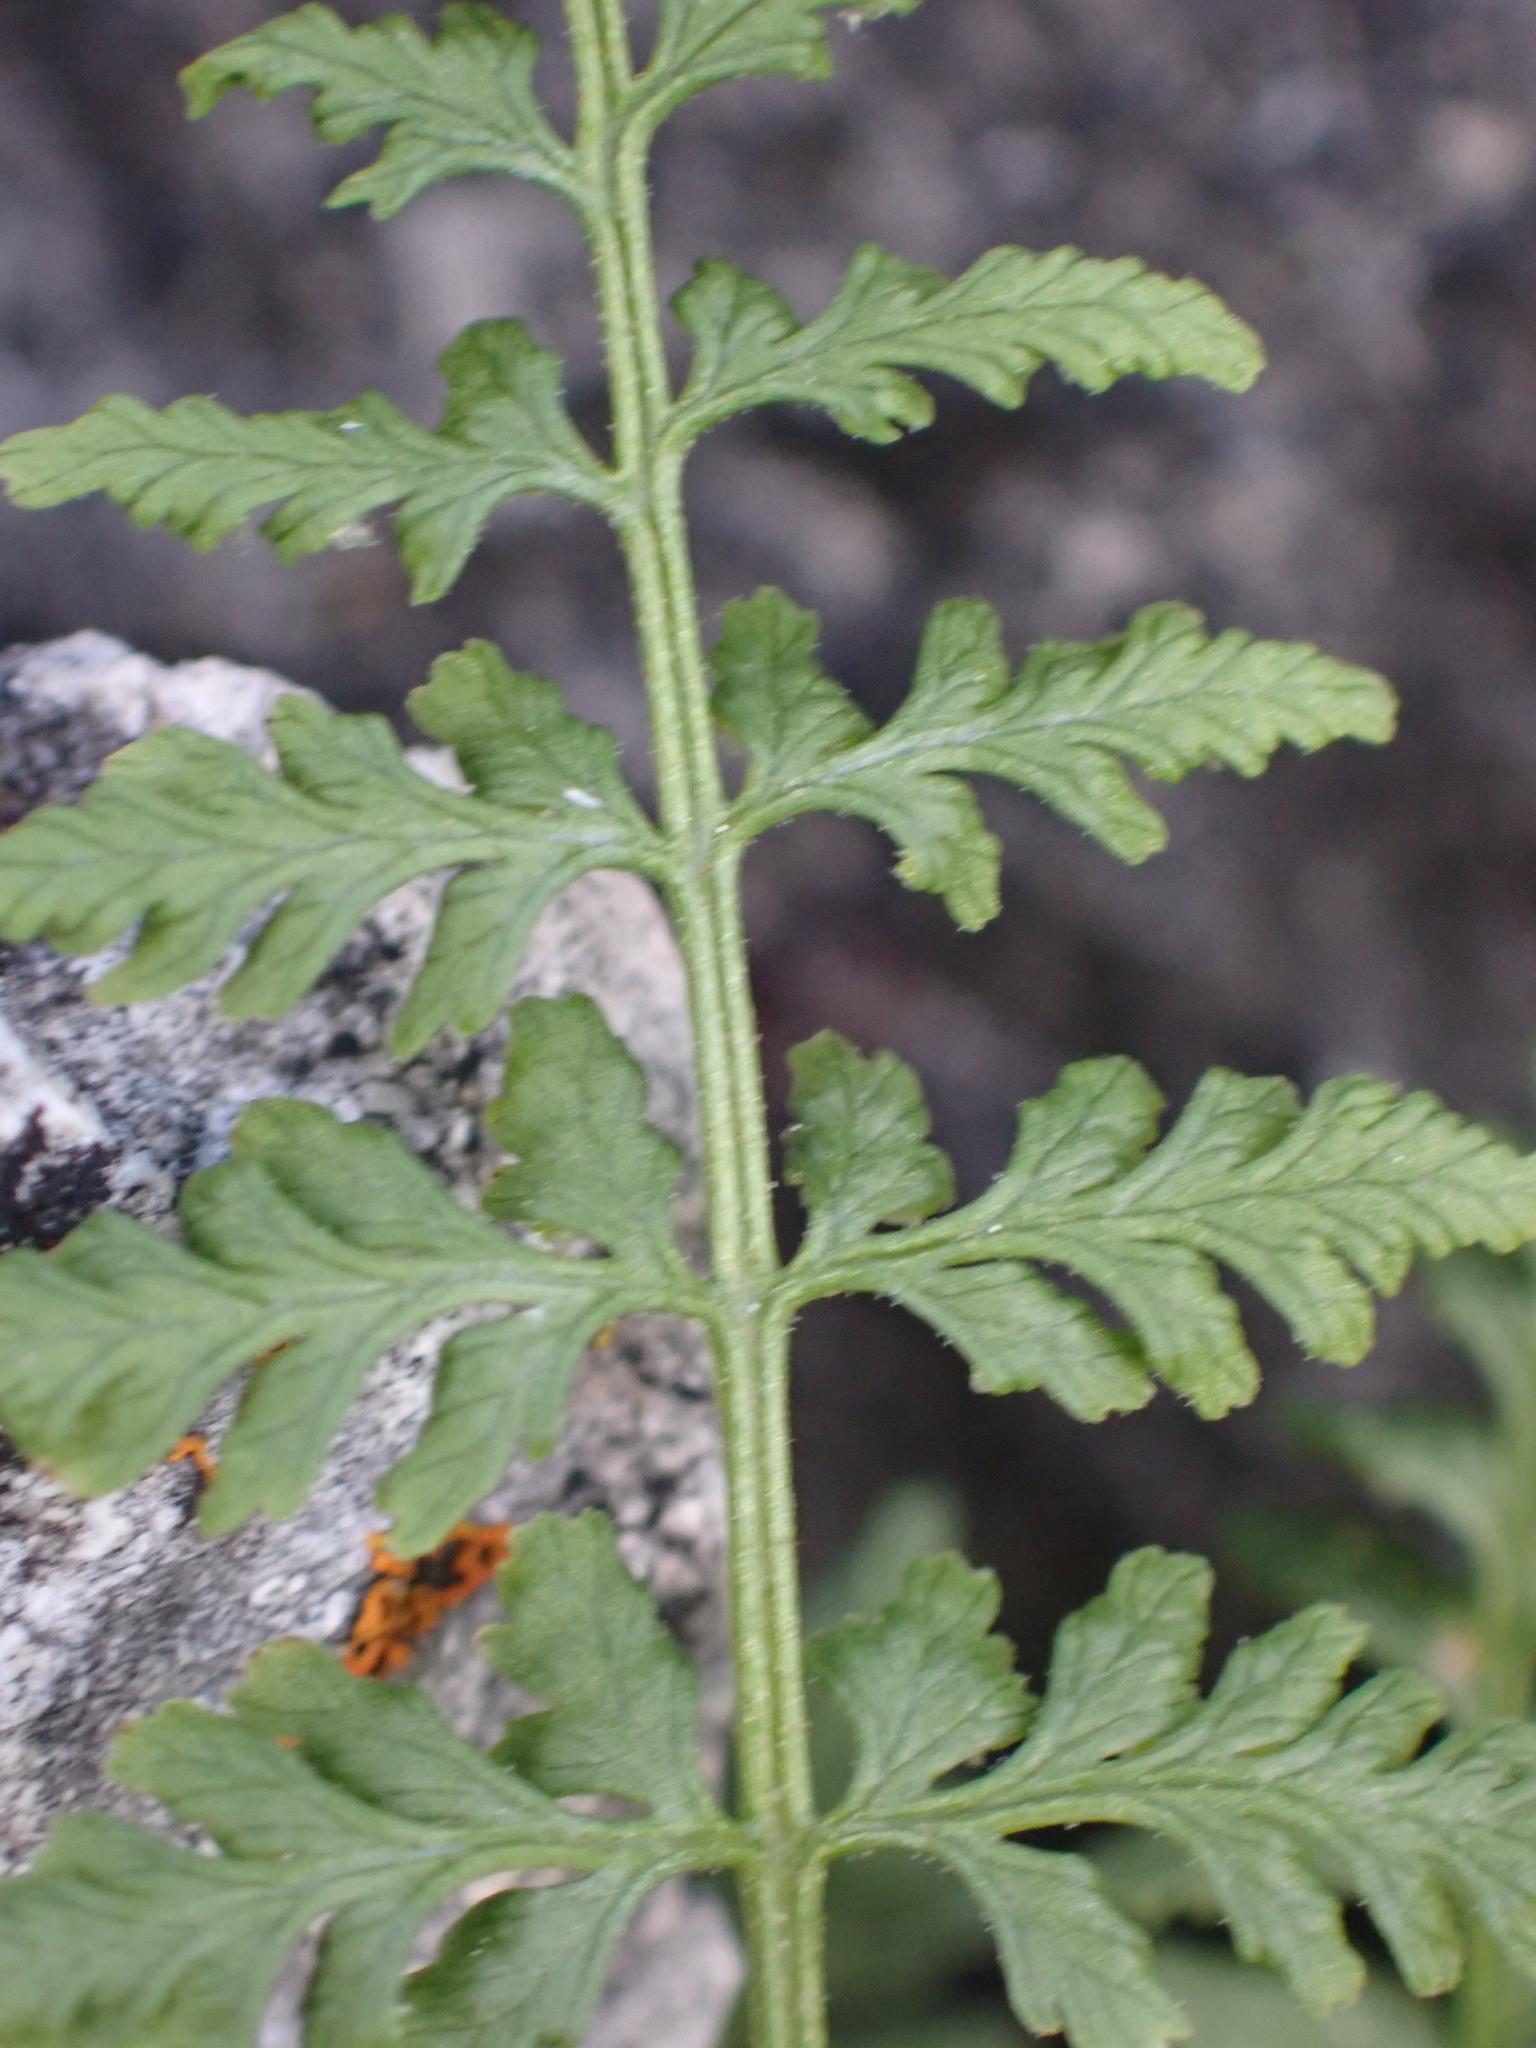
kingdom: Plantae
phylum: Tracheophyta
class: Polypodiopsida
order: Polypodiales
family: Cystopteridaceae
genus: Cystopteris
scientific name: Cystopteris fragilis
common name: Brittle bladder fern
